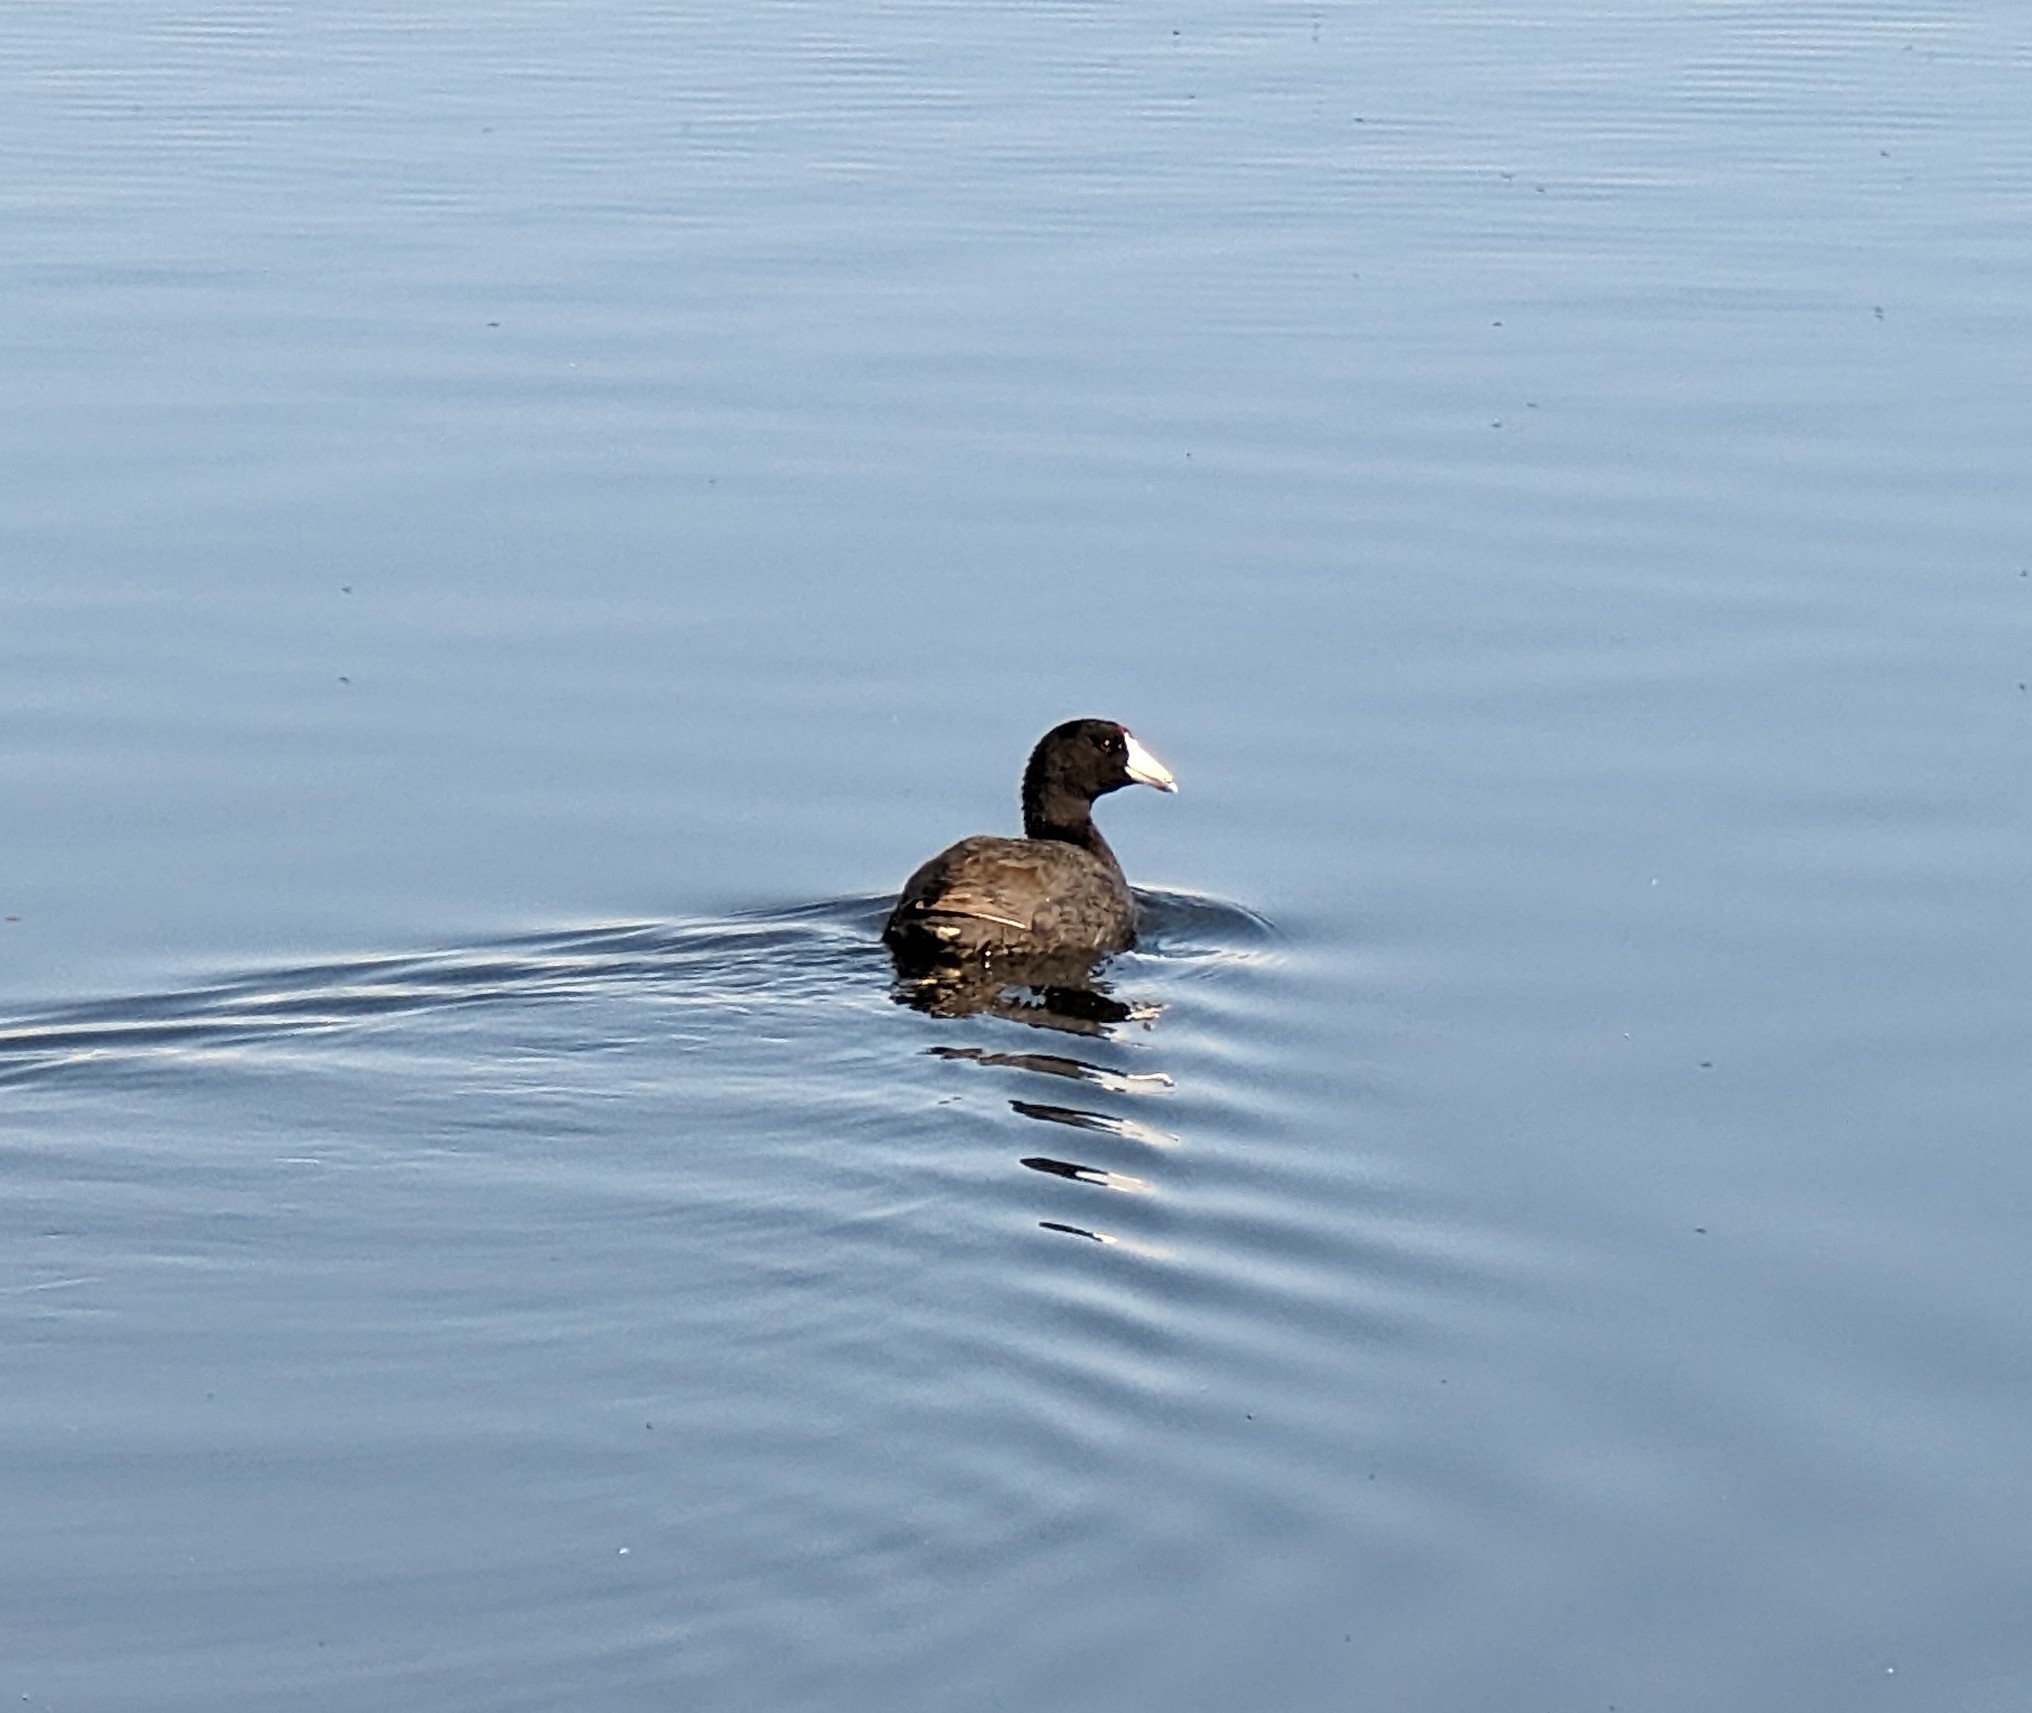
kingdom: Animalia
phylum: Chordata
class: Aves
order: Gruiformes
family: Rallidae
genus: Fulica
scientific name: Fulica americana
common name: American coot
